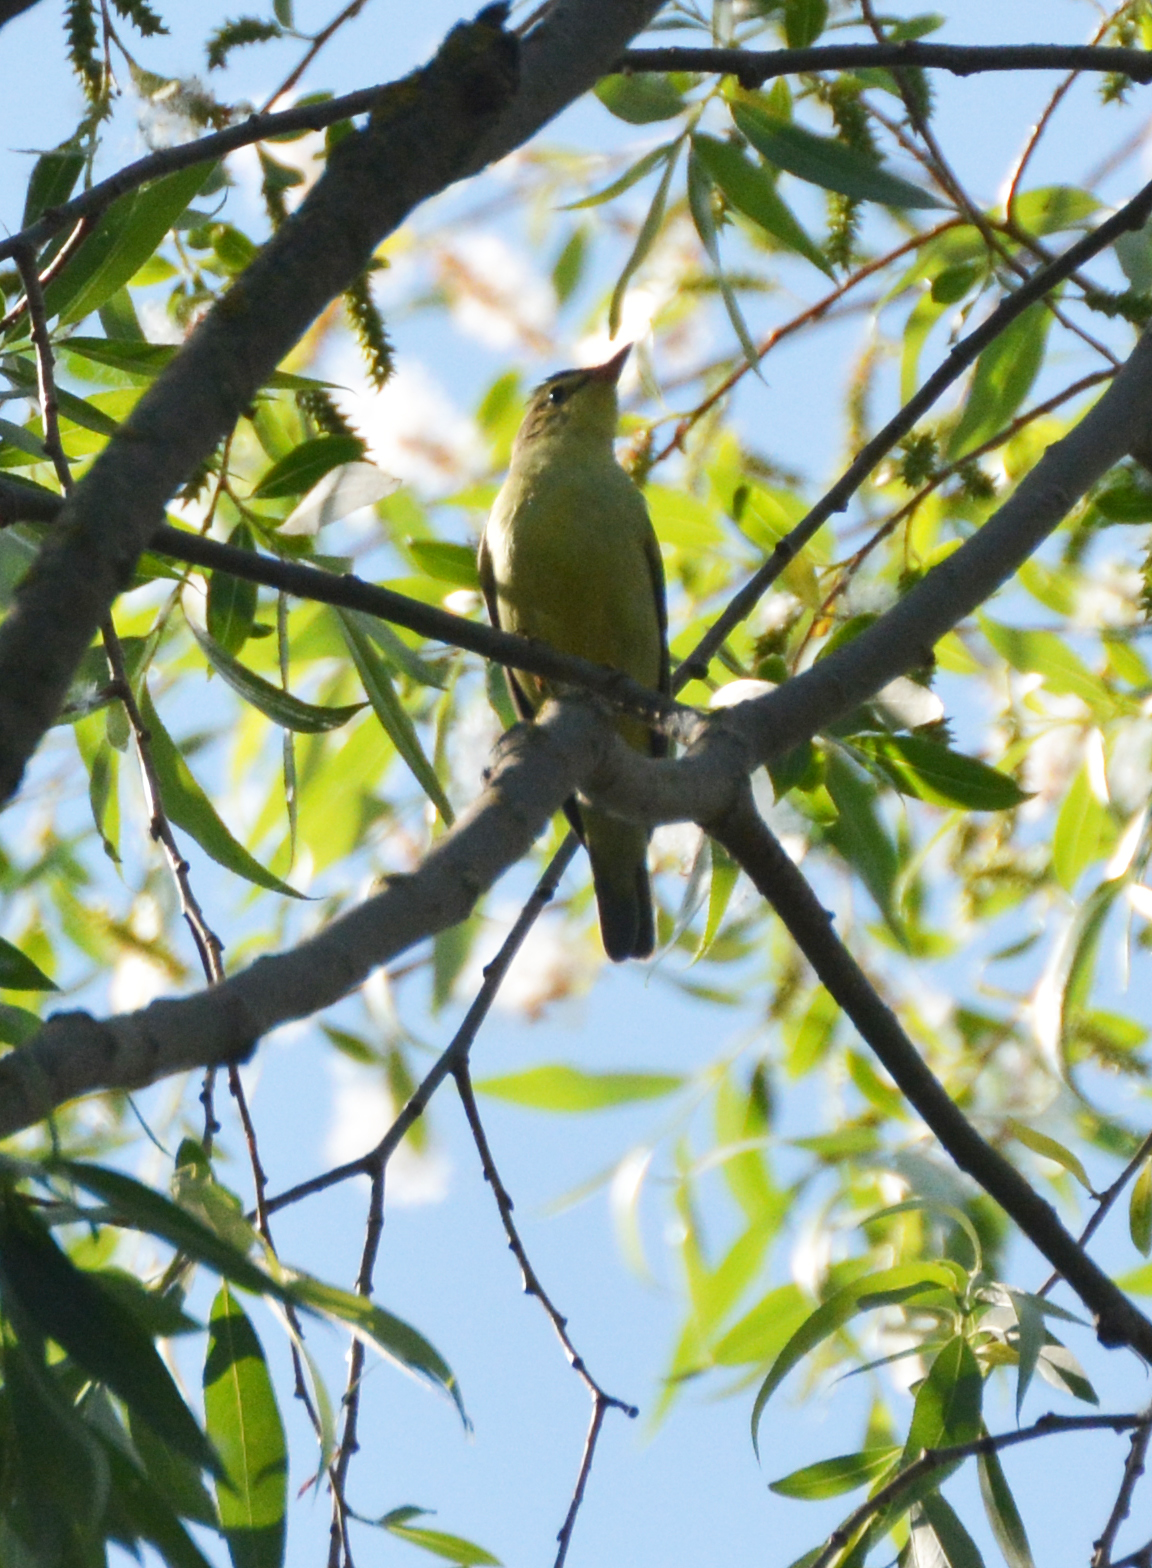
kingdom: Animalia
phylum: Chordata
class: Aves
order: Passeriformes
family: Acrocephalidae
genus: Hippolais
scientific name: Hippolais icterina
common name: Icterine warbler
